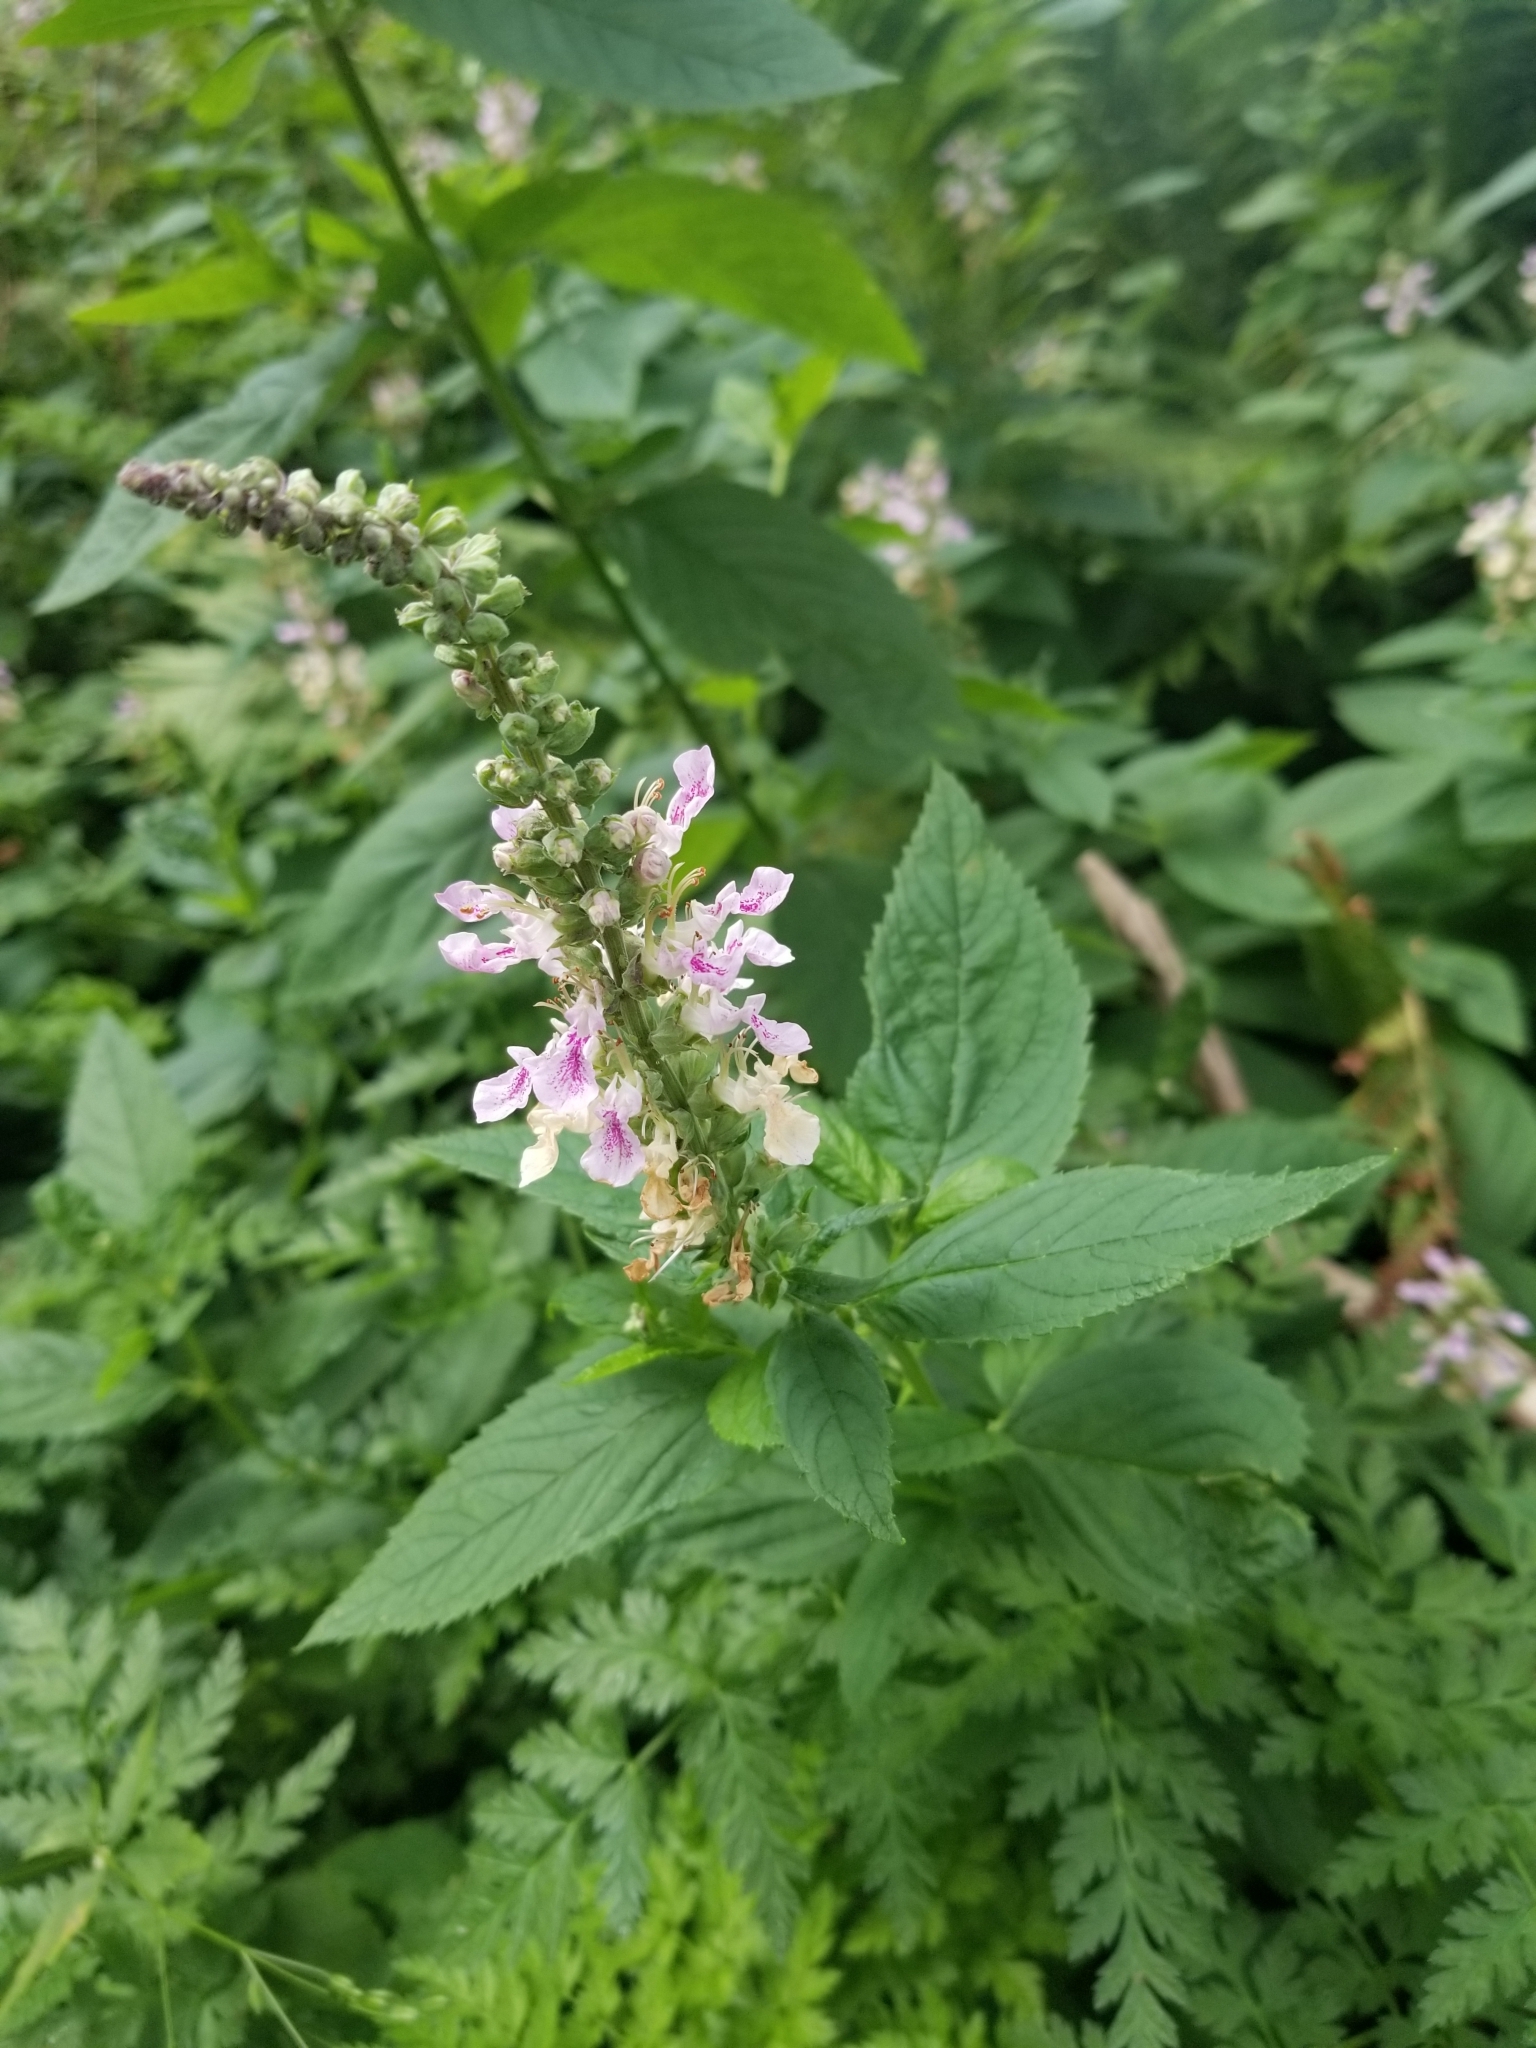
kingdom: Plantae
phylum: Tracheophyta
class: Magnoliopsida
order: Lamiales
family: Lamiaceae
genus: Teucrium
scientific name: Teucrium canadense
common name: American germander
